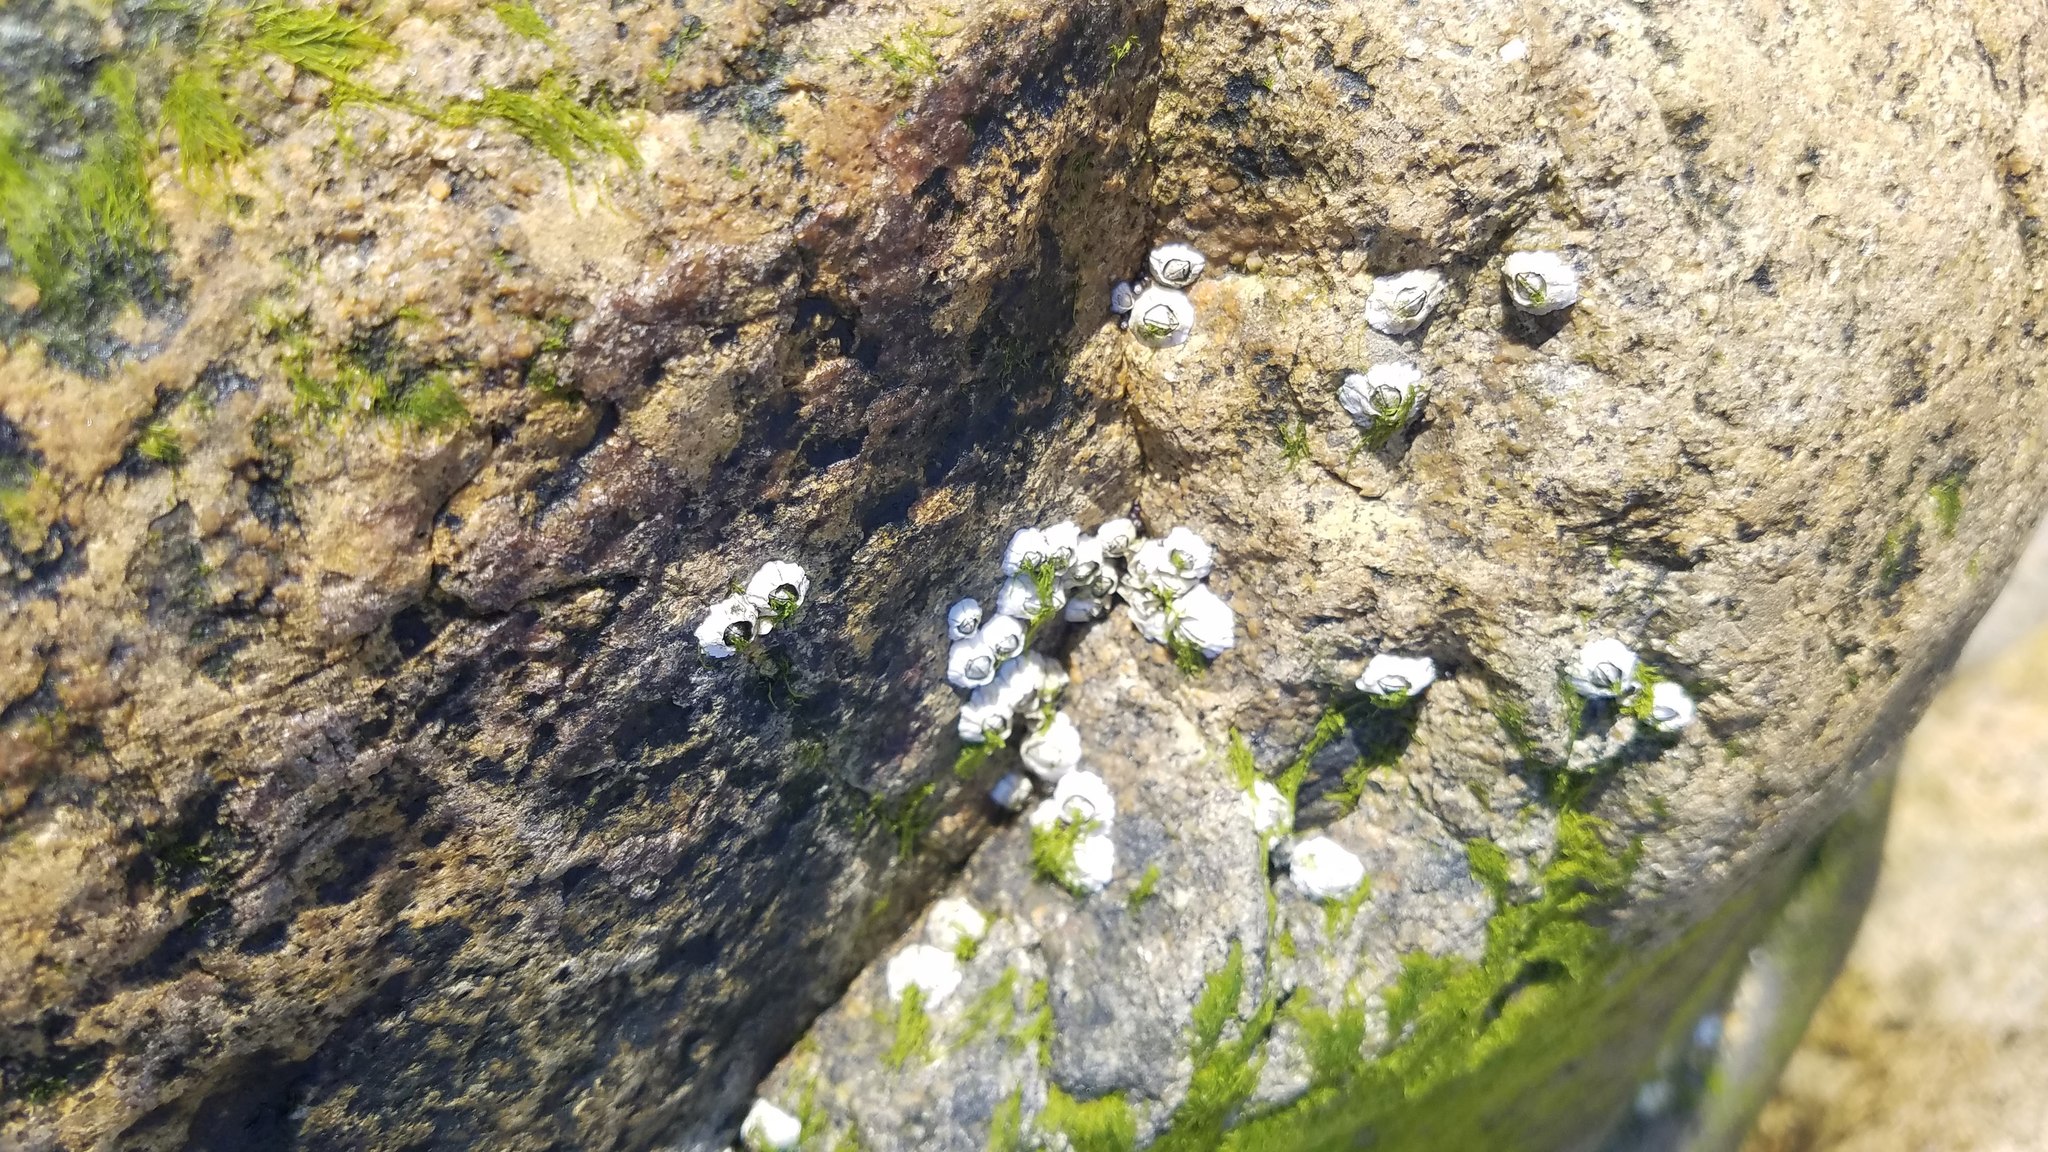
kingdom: Animalia
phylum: Arthropoda
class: Maxillopoda
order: Sessilia
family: Archaeobalanidae
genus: Semibalanus
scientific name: Semibalanus balanoides
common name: Acorn barnacle
